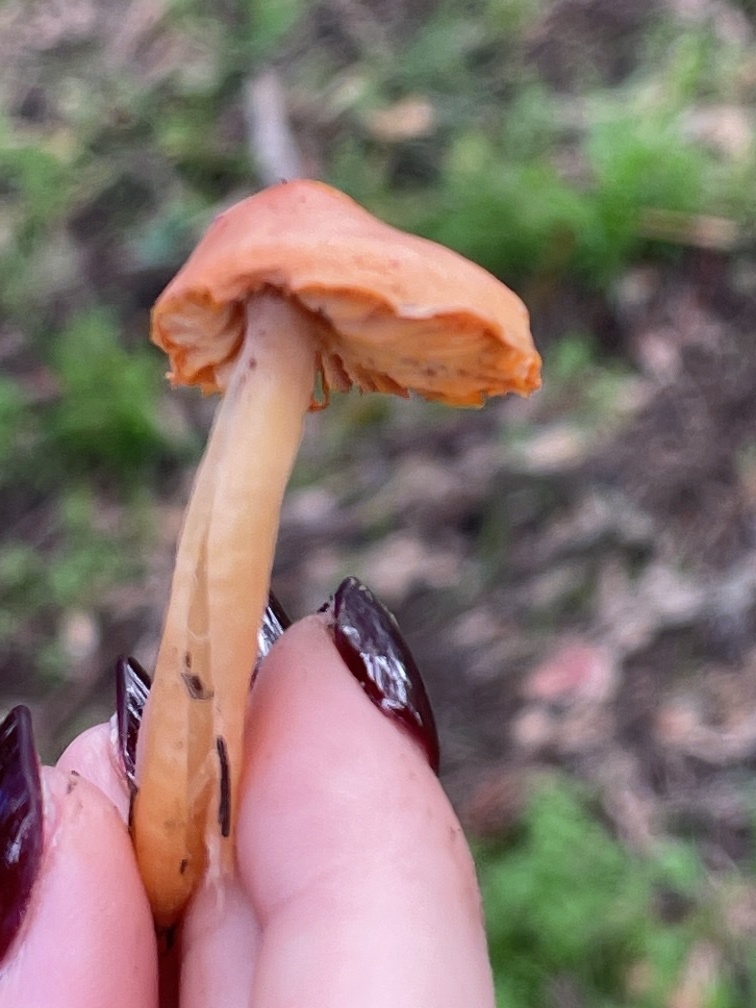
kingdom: Fungi
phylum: Basidiomycota
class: Agaricomycetes
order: Agaricales
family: Hygrophoraceae
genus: Gliophorus
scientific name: Gliophorus psittacinus
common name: Parrot wax-cap
